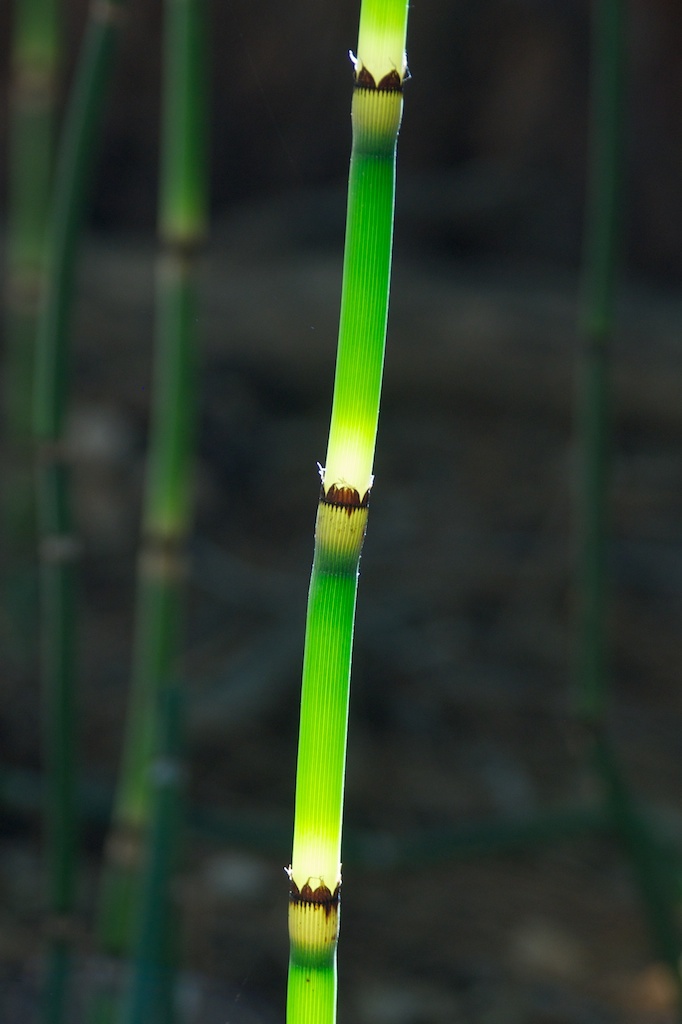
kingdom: Plantae
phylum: Tracheophyta
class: Polypodiopsida
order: Equisetales
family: Equisetaceae
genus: Equisetum
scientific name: Equisetum praealtum
